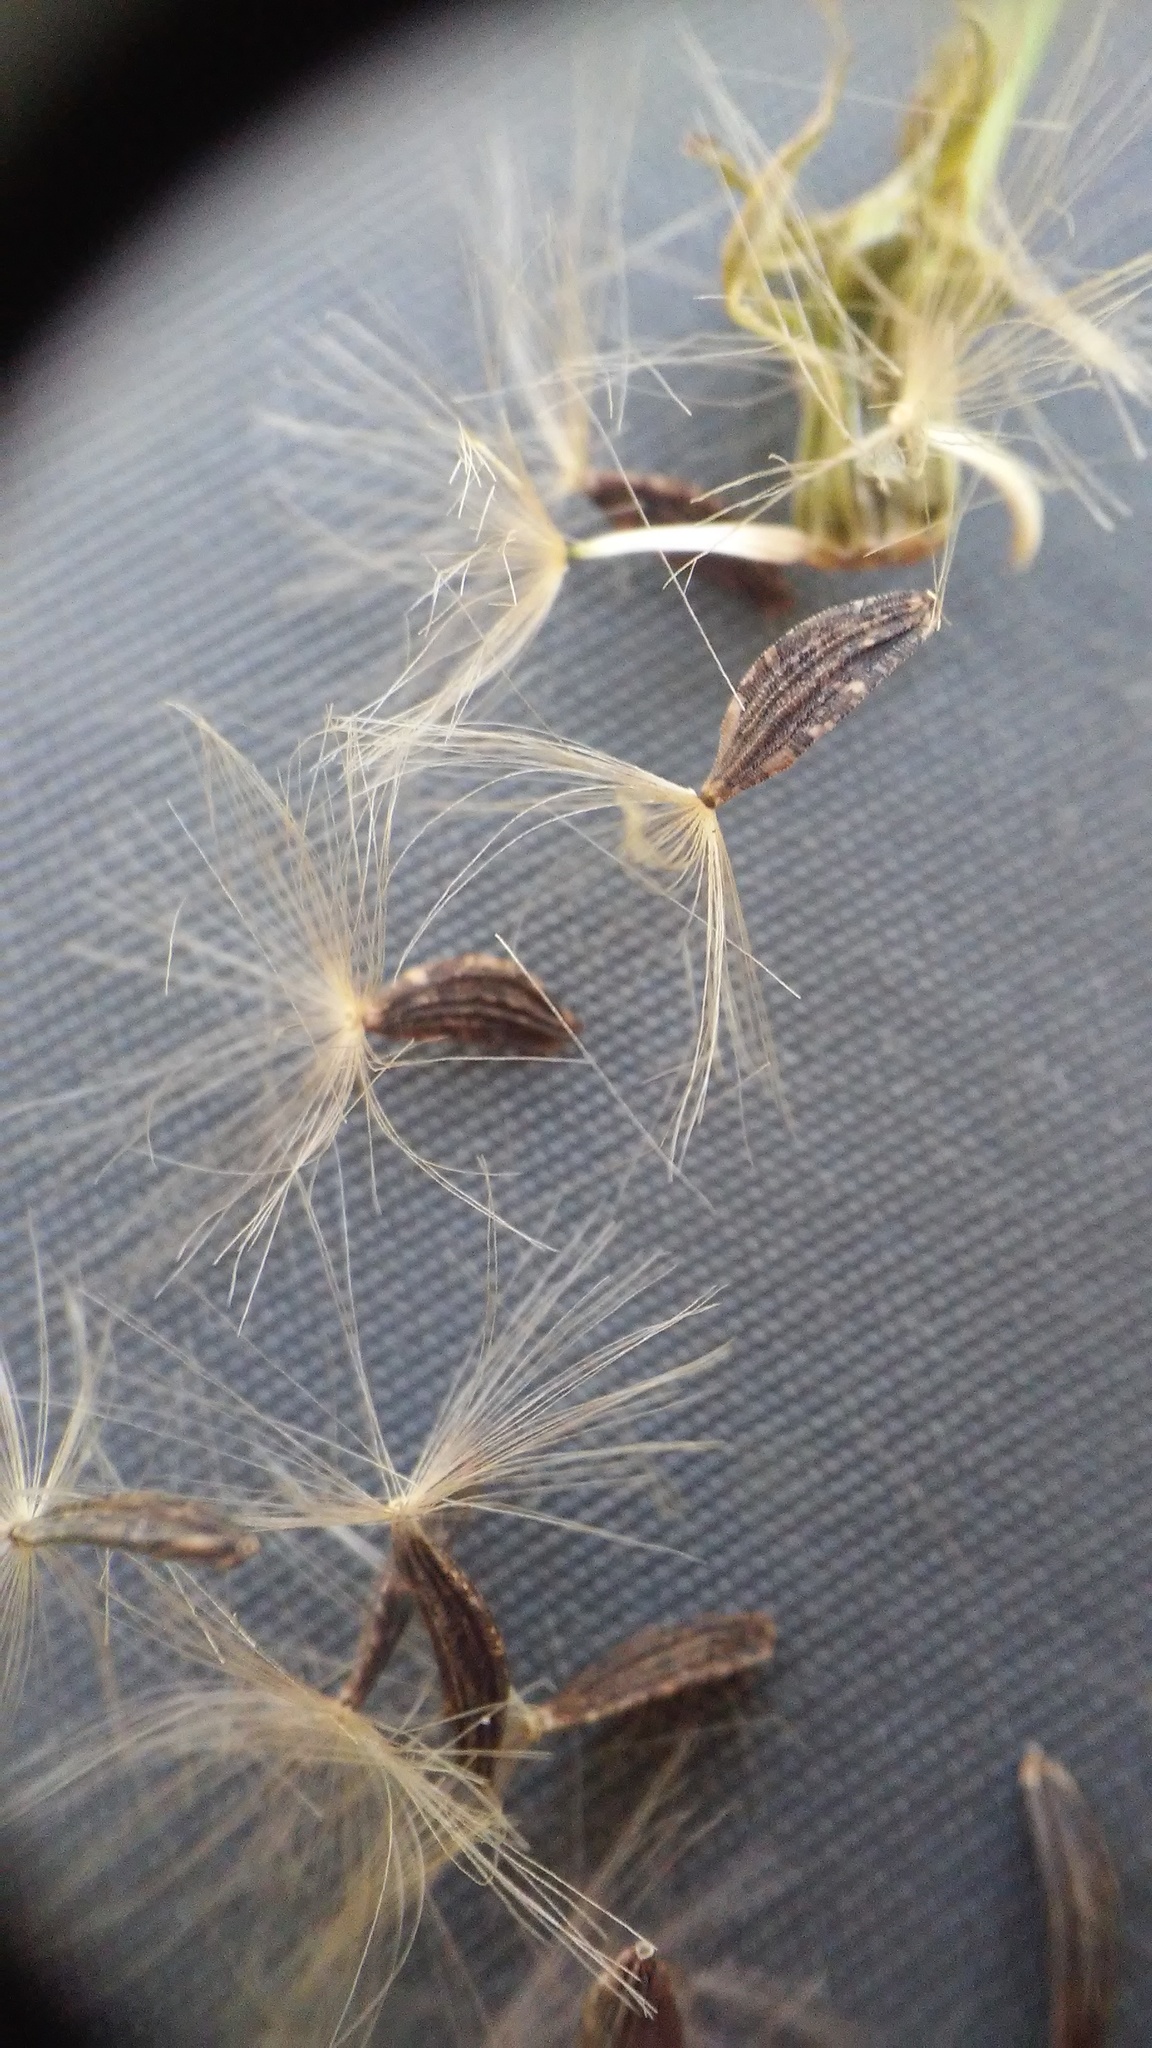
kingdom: Plantae
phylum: Tracheophyta
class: Magnoliopsida
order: Asterales
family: Asteraceae
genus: Lactuca
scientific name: Lactuca biennis
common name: Blue wood lettuce
